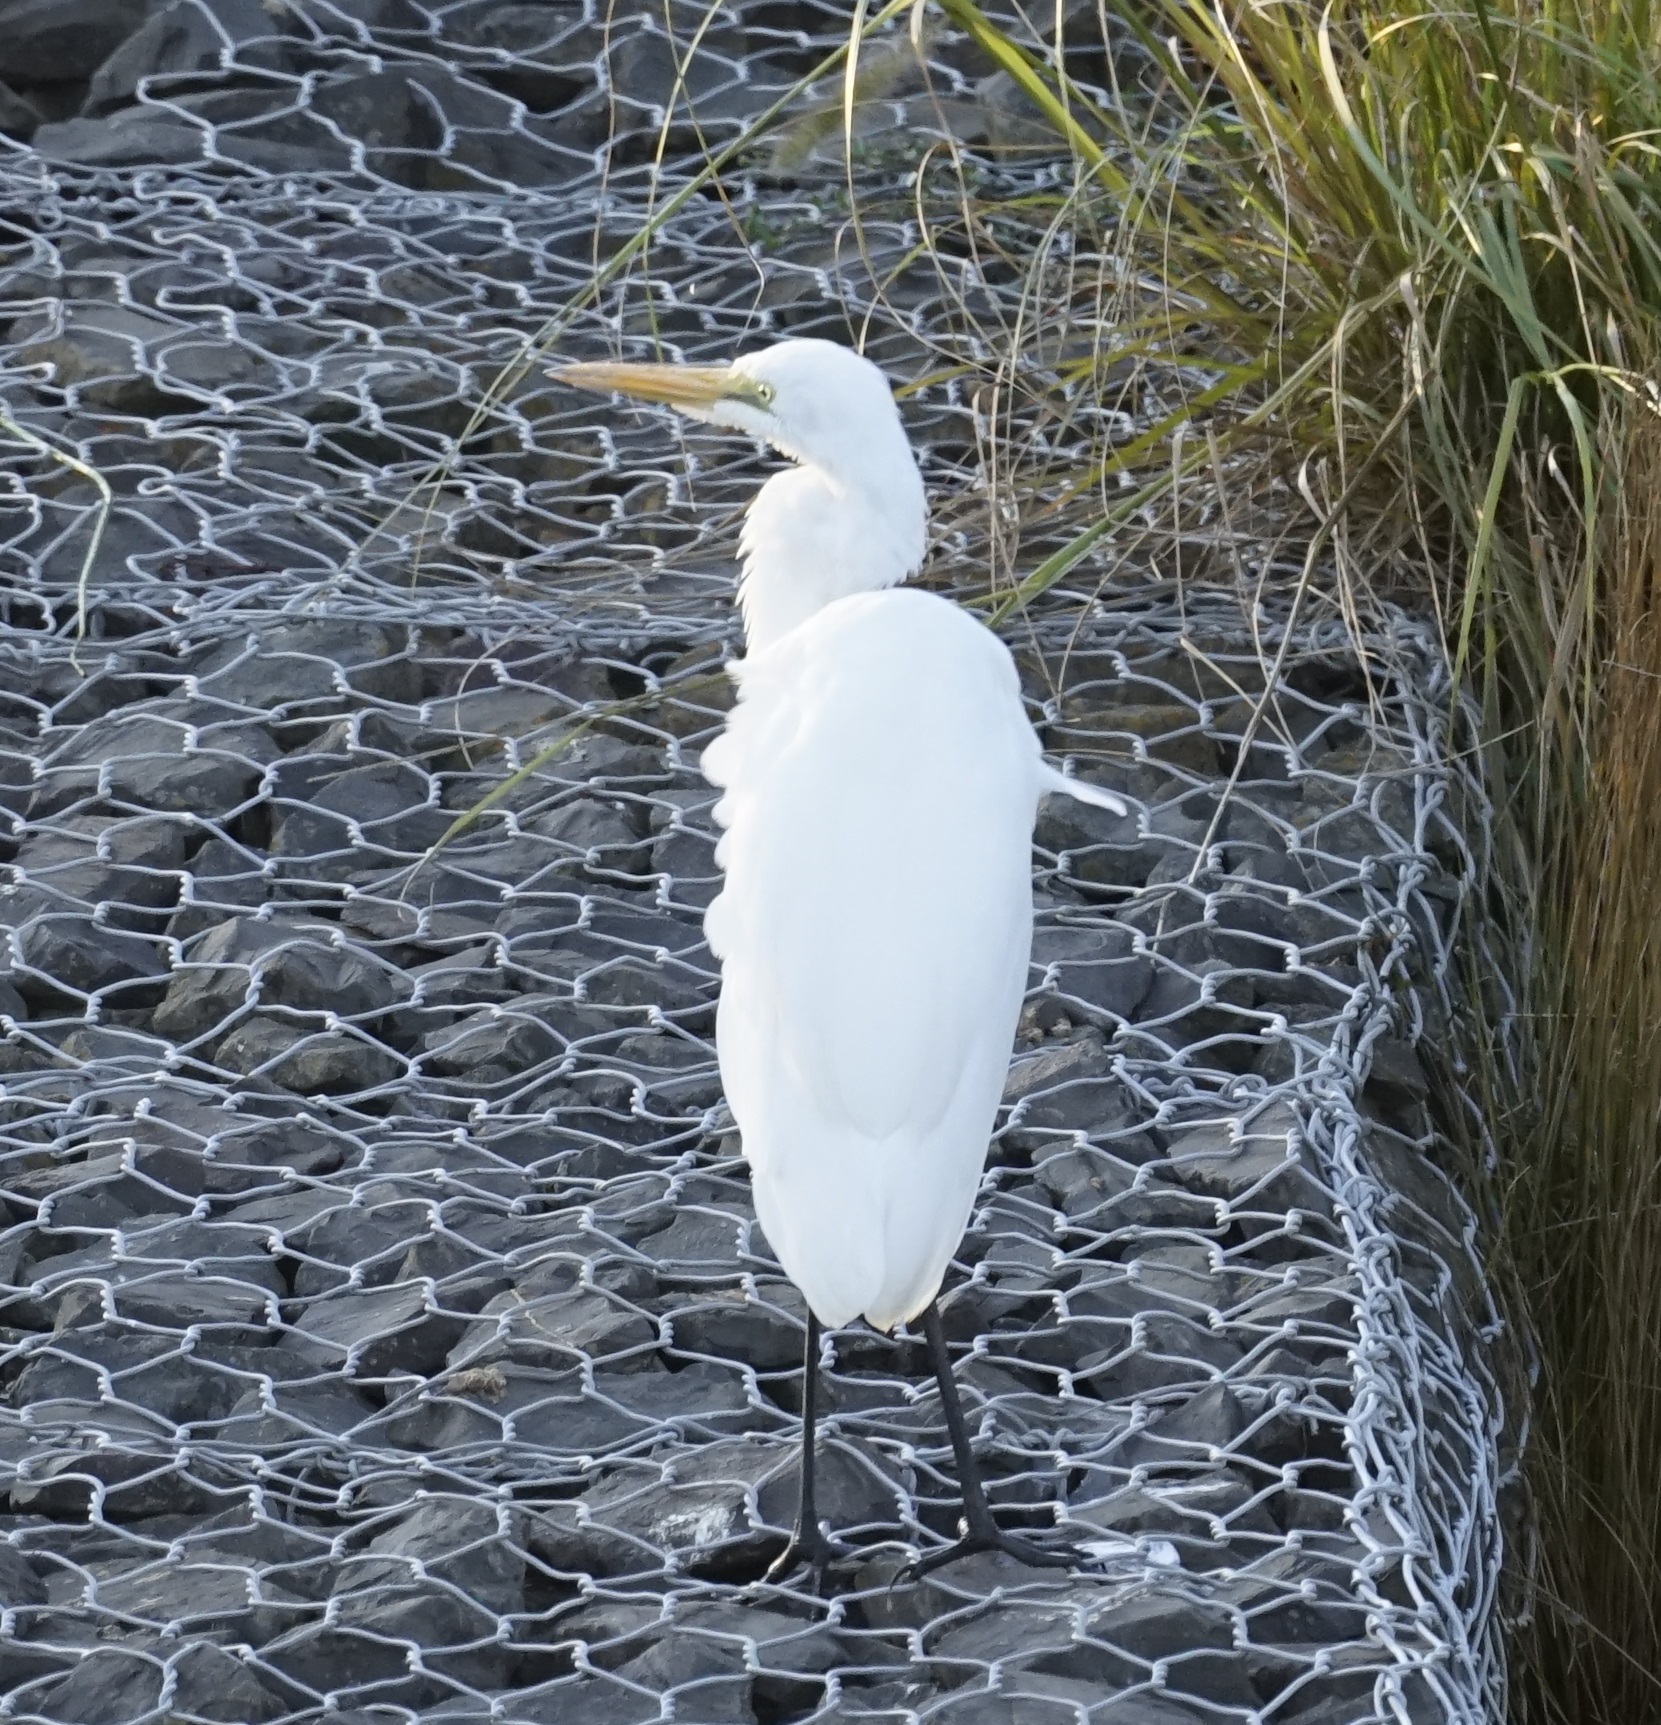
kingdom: Animalia
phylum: Chordata
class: Aves
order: Pelecaniformes
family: Ardeidae
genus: Ardea
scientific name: Ardea modesta
